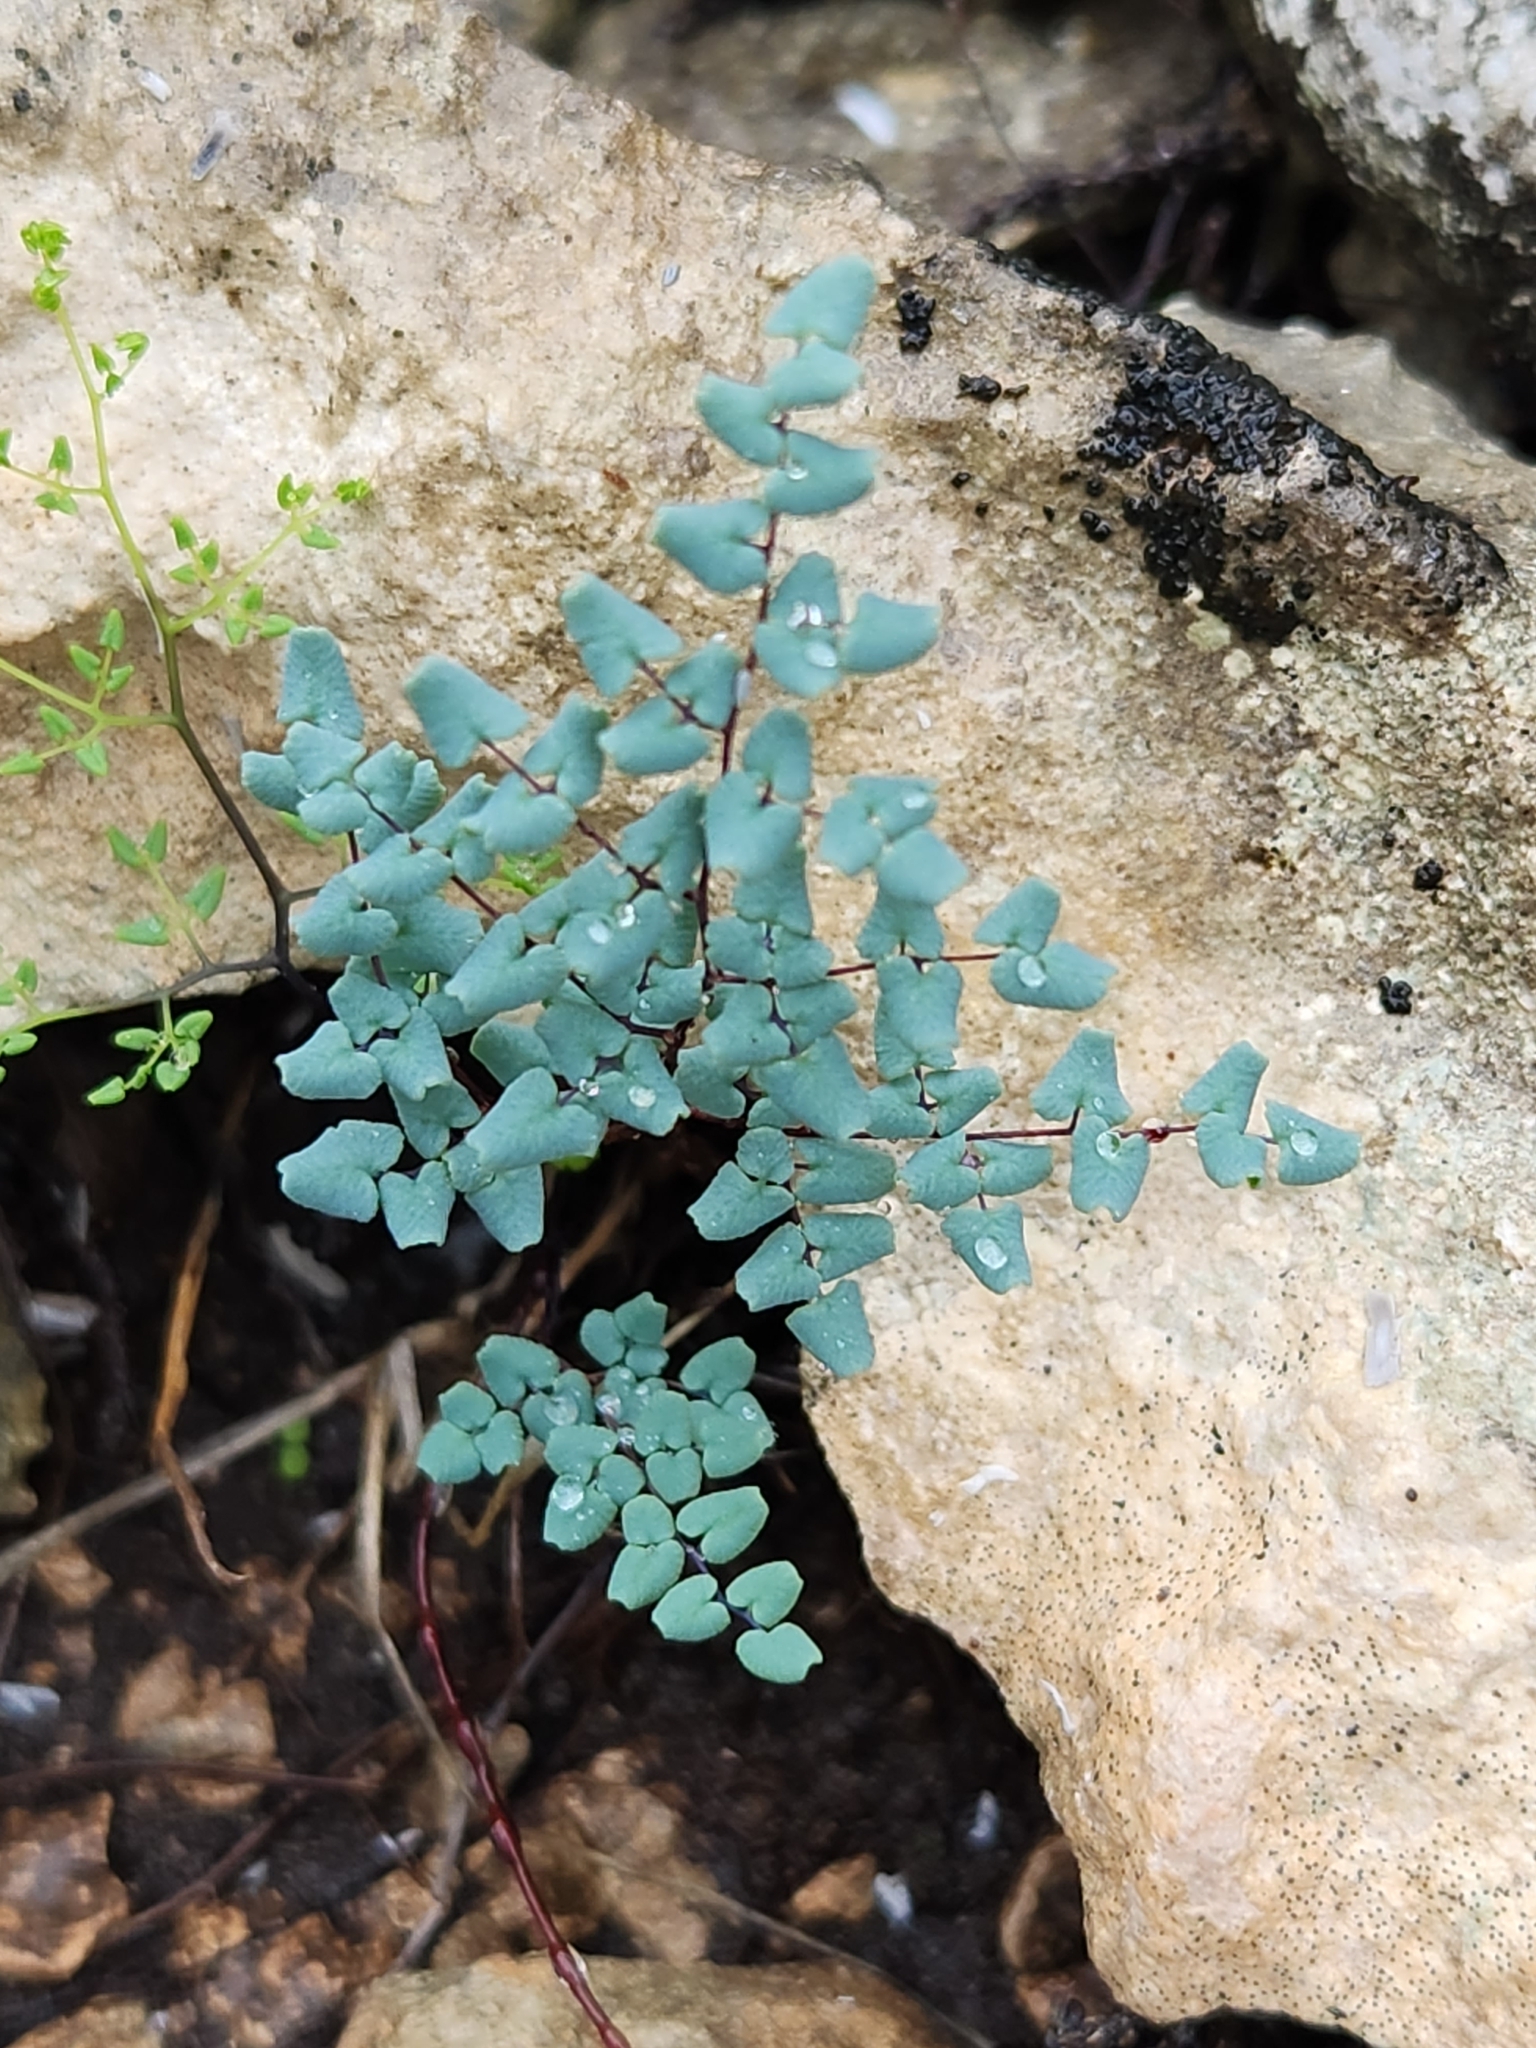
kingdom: Plantae
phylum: Tracheophyta
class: Polypodiopsida
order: Polypodiales
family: Pteridaceae
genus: Argyrochosma
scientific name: Argyrochosma microphylla
